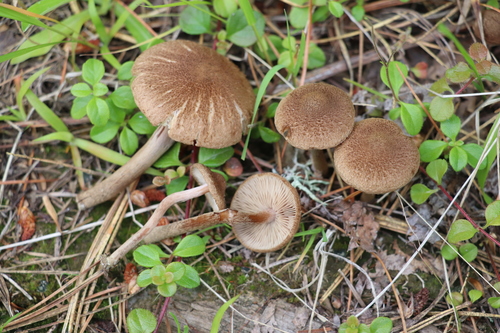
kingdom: Fungi
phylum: Basidiomycota
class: Agaricomycetes
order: Agaricales
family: Inocybaceae
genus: Inocybe
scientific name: Inocybe lacera
